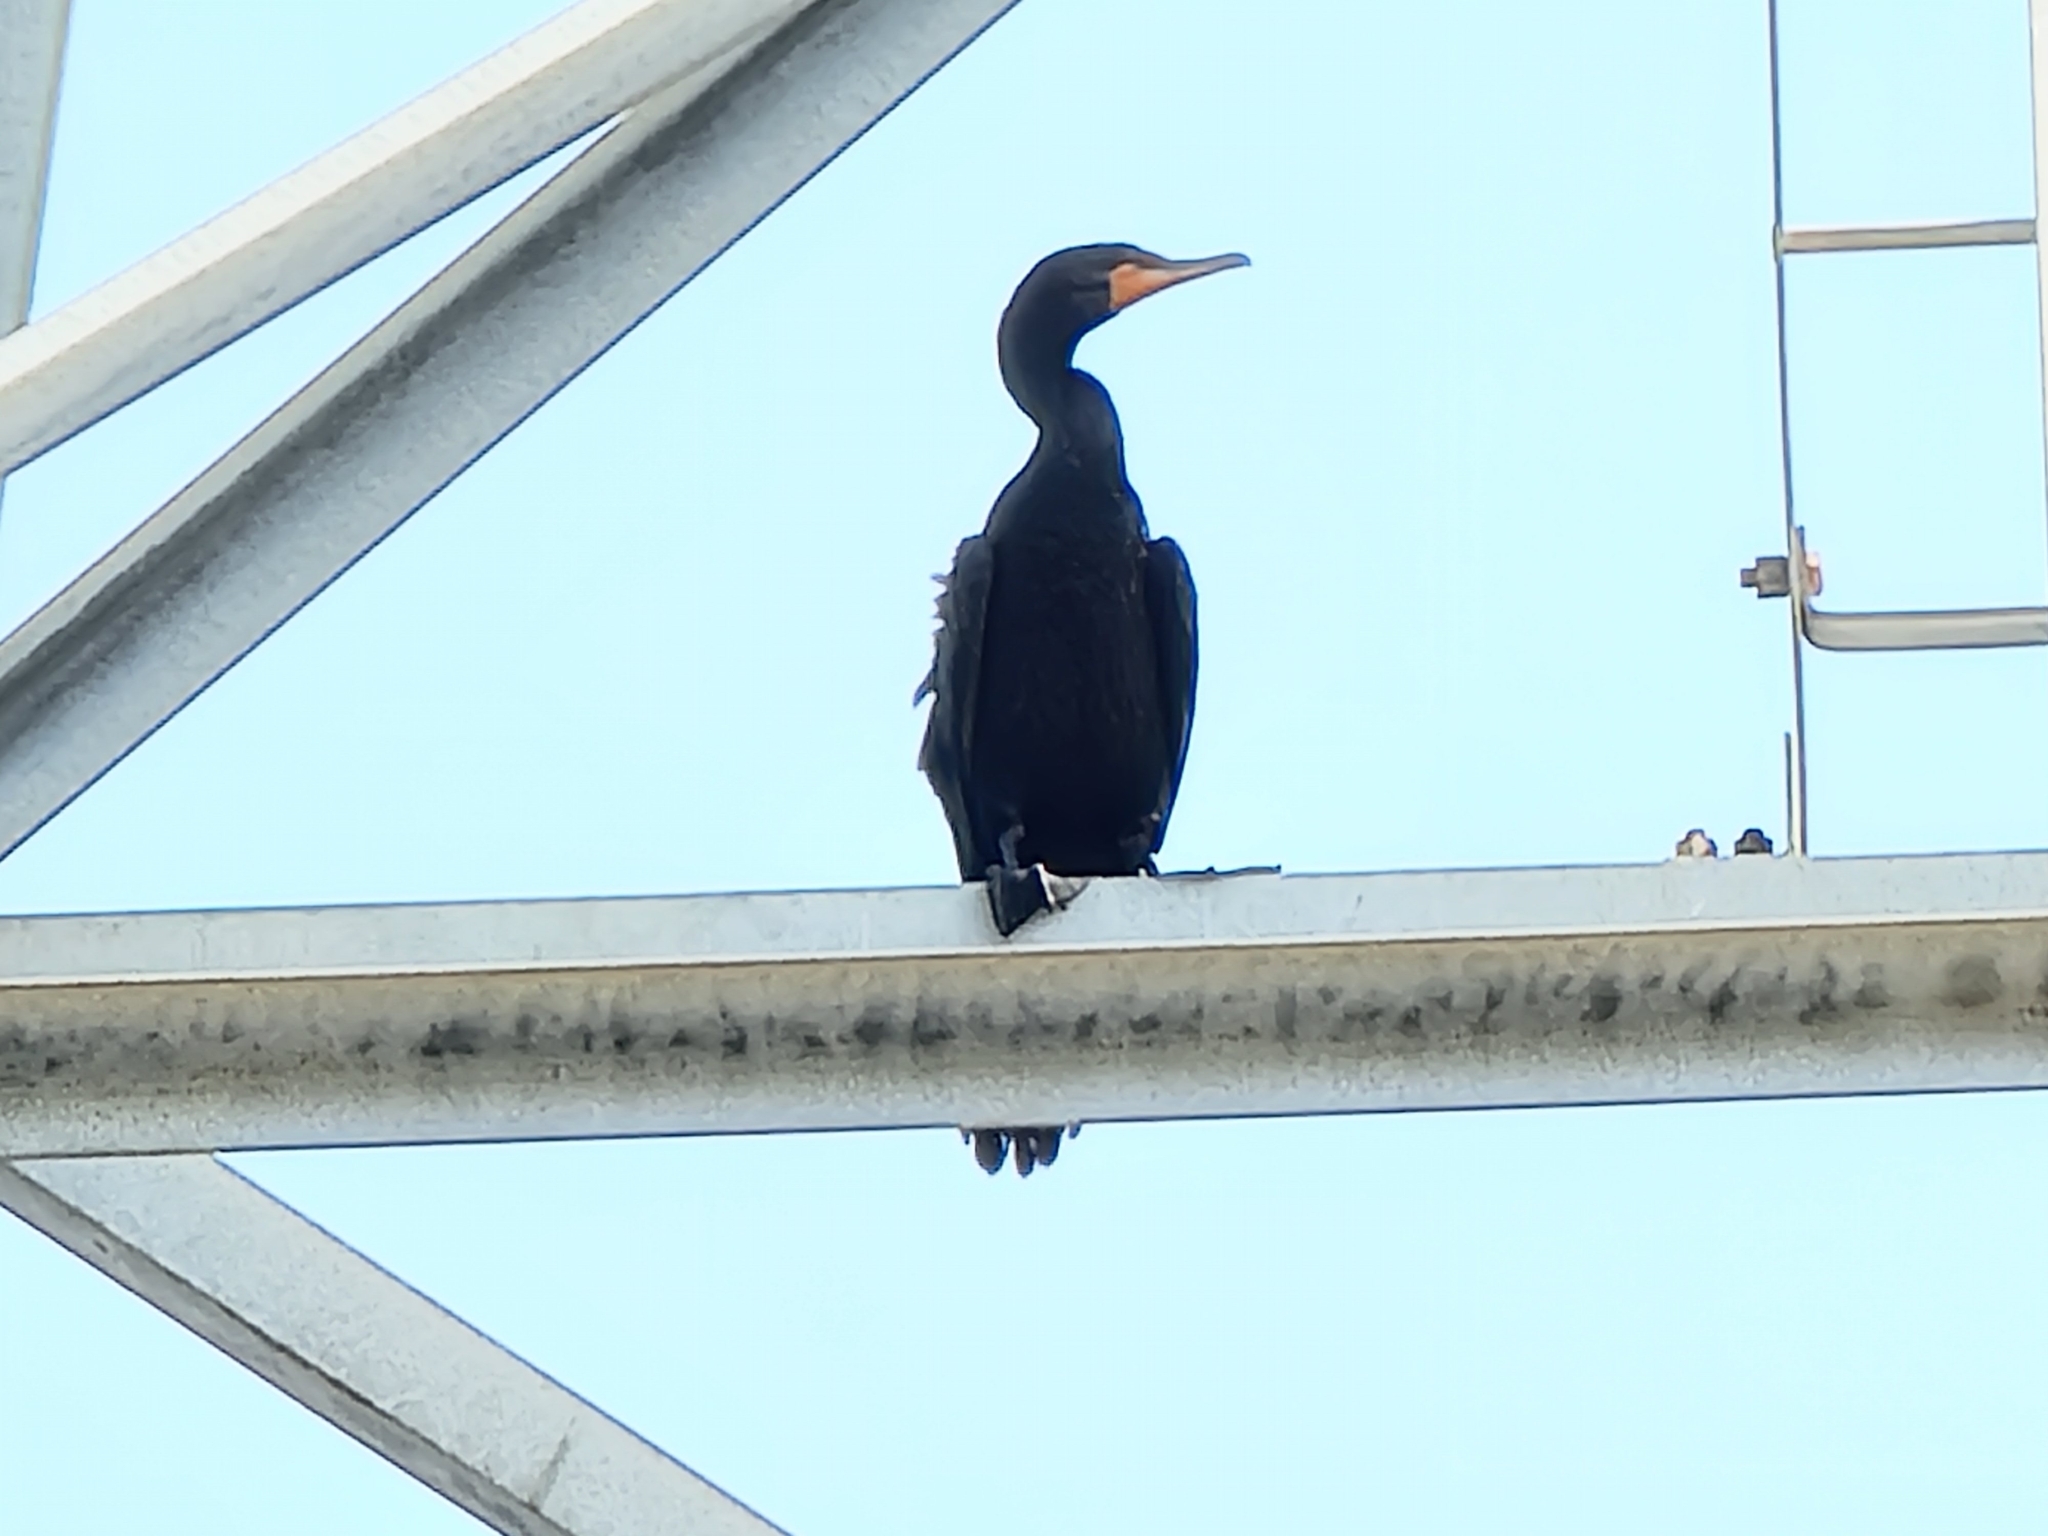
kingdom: Animalia
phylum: Chordata
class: Aves
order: Suliformes
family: Phalacrocoracidae
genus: Phalacrocorax
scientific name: Phalacrocorax auritus
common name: Double-crested cormorant
